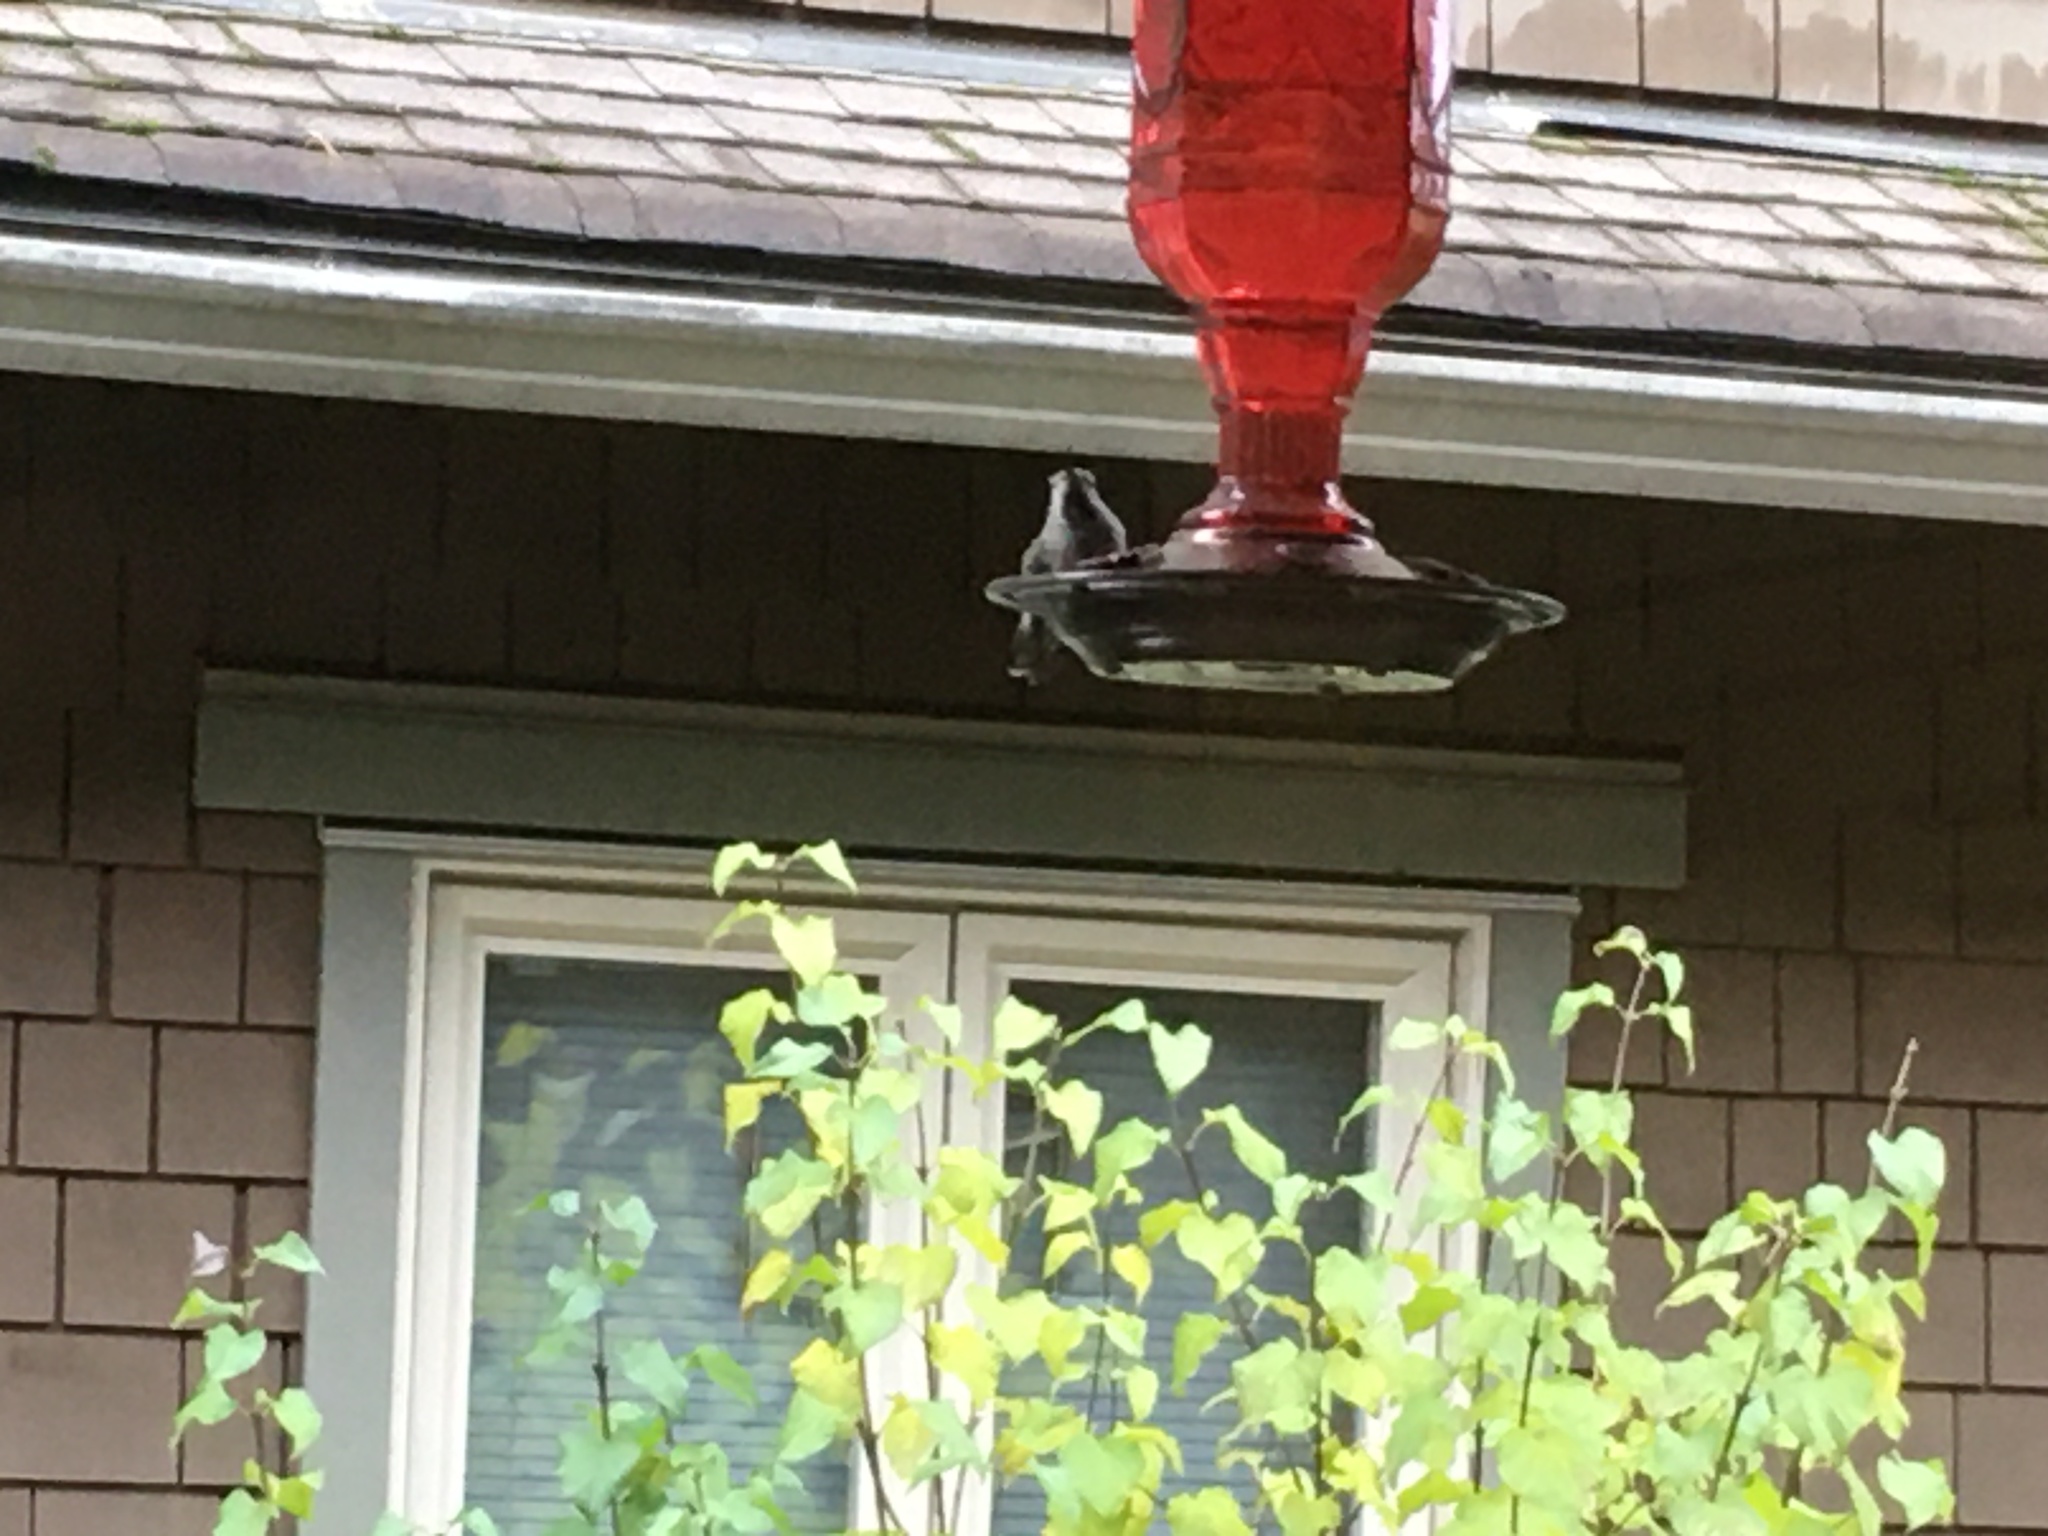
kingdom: Animalia
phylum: Chordata
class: Aves
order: Apodiformes
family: Trochilidae
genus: Calypte
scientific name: Calypte anna
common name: Anna's hummingbird
